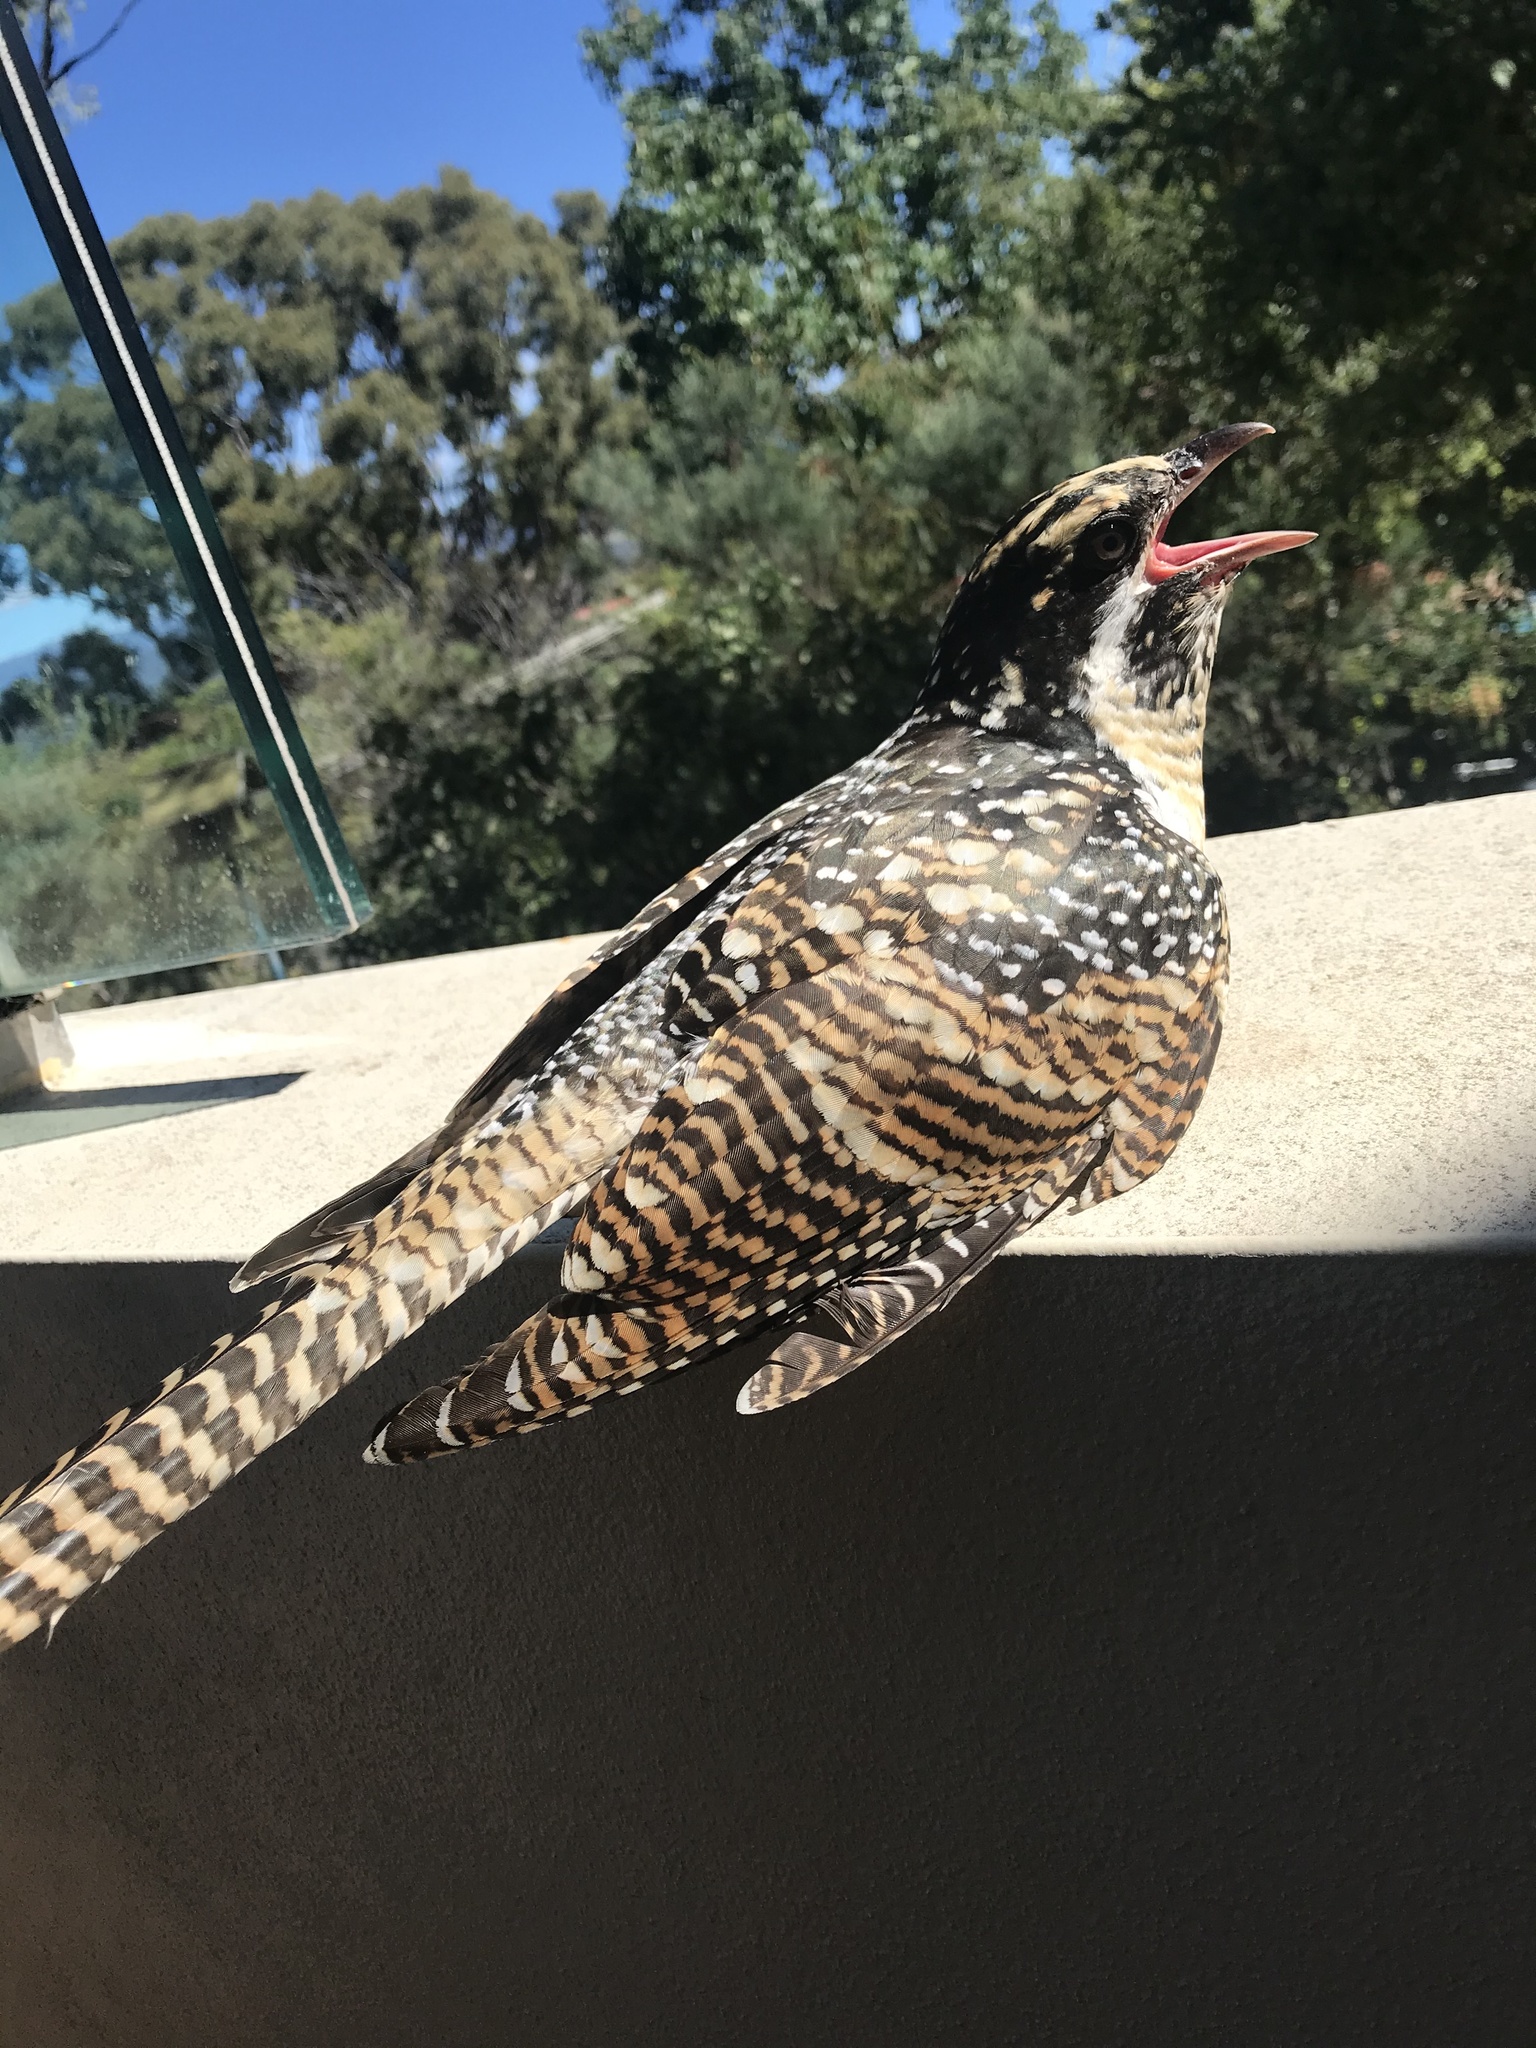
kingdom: Animalia
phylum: Chordata
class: Aves
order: Cuculiformes
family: Cuculidae
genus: Eudynamys
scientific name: Eudynamys orientalis
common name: Pacific koel
